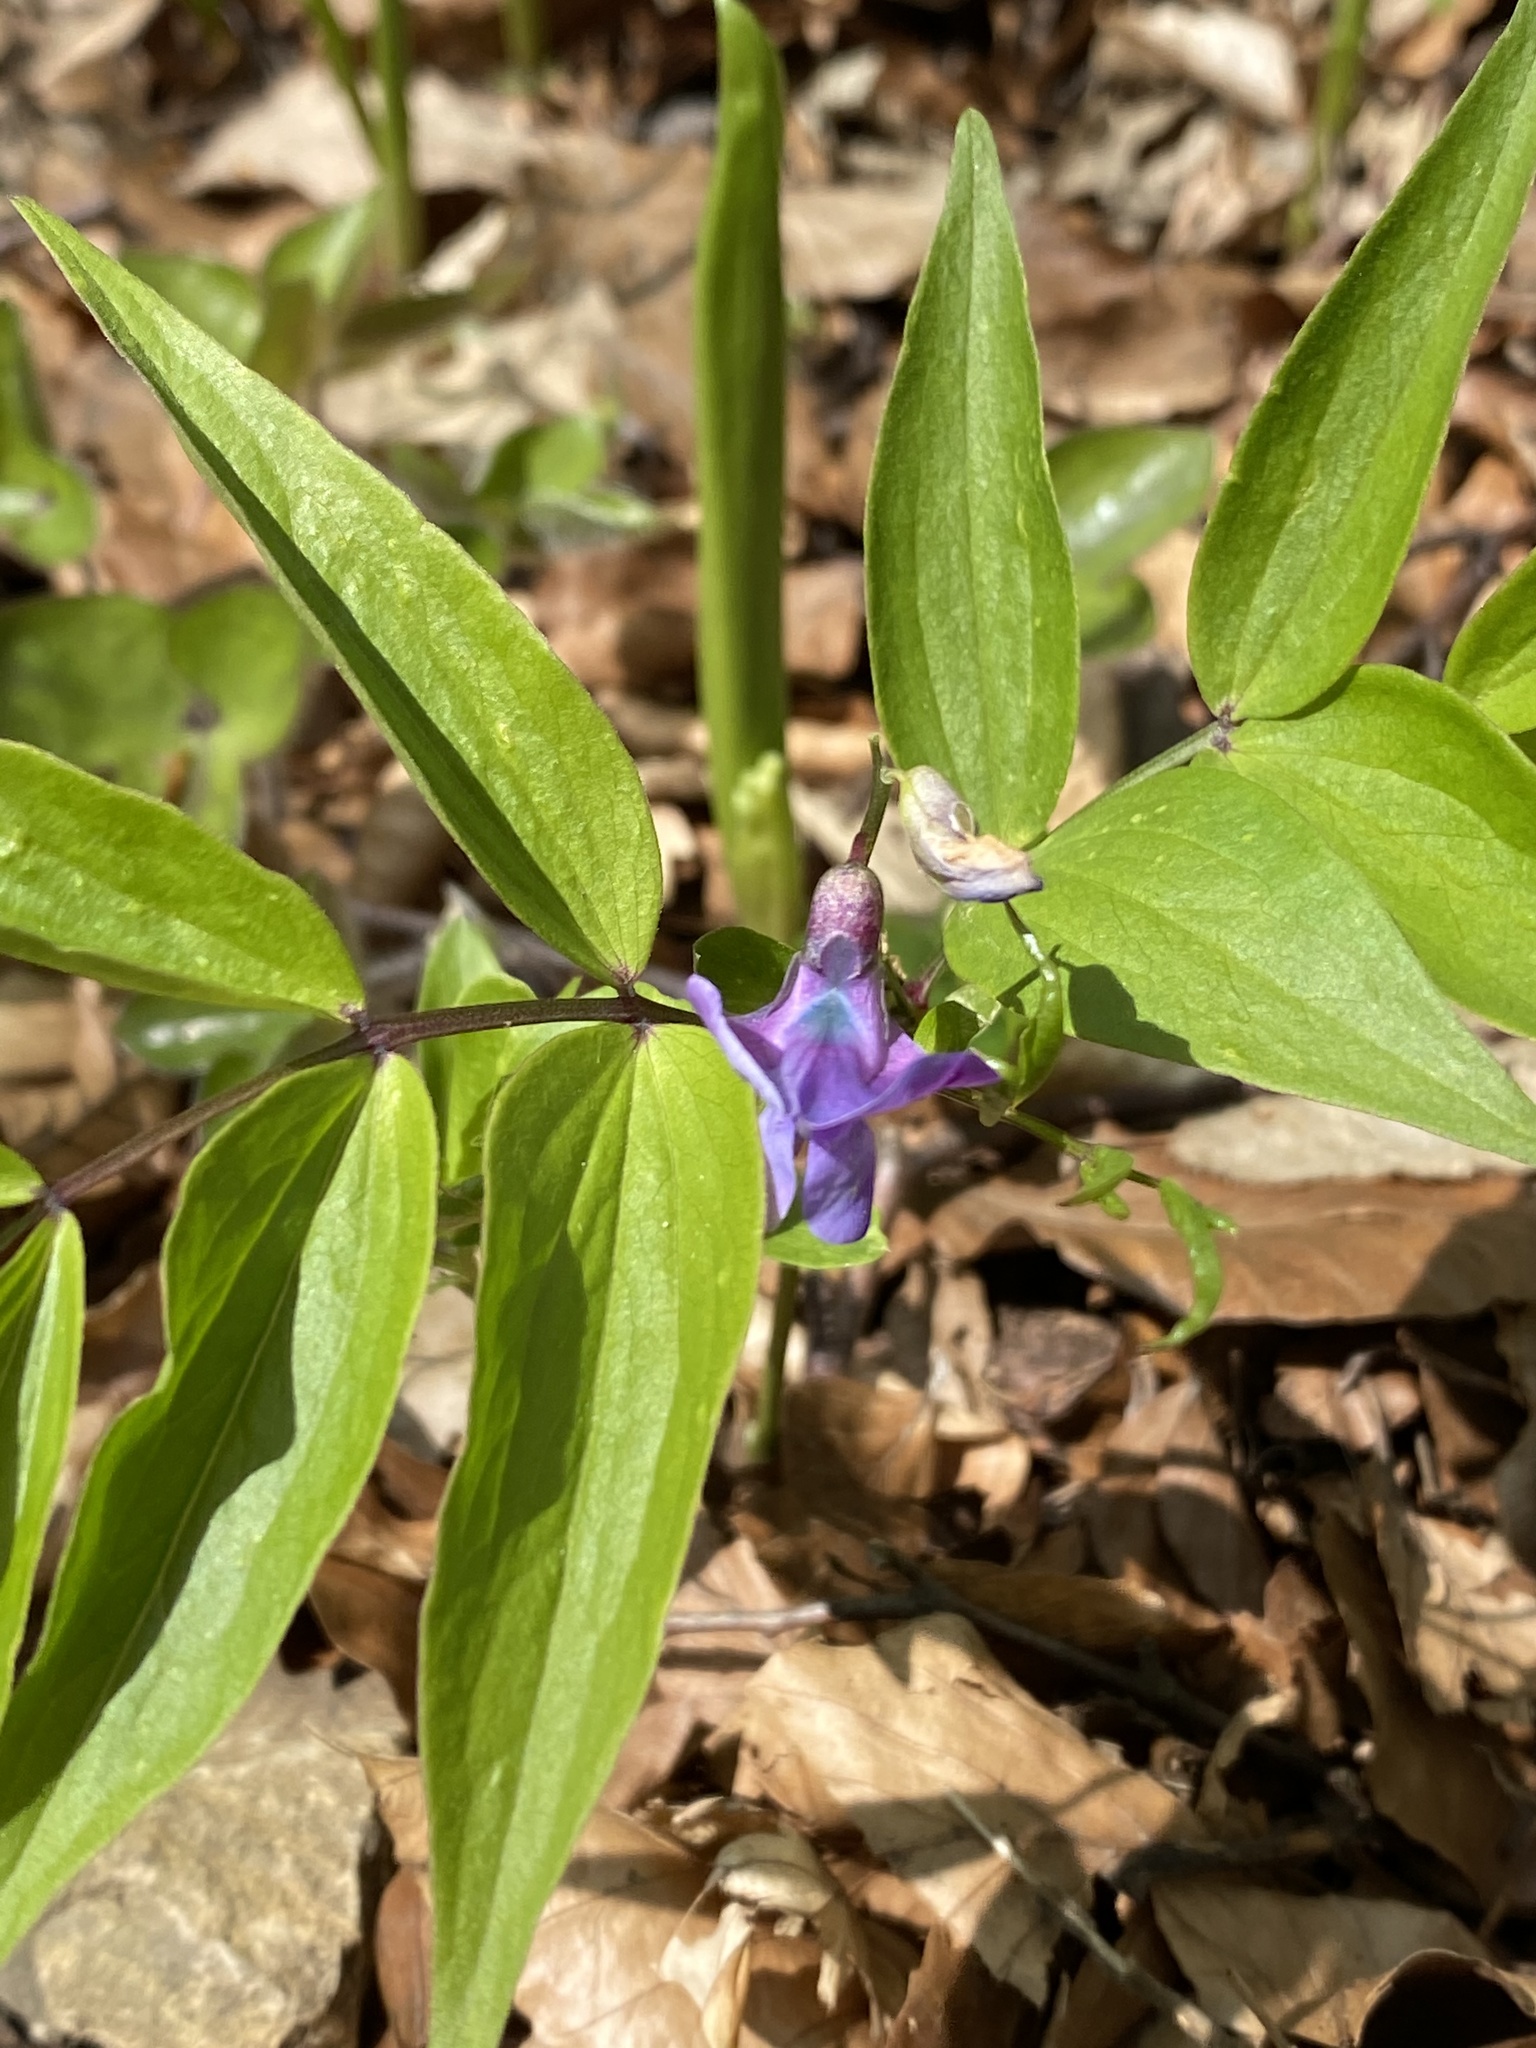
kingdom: Plantae
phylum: Tracheophyta
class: Magnoliopsida
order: Fabales
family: Fabaceae
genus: Lathyrus
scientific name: Lathyrus vernus
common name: Spring pea
